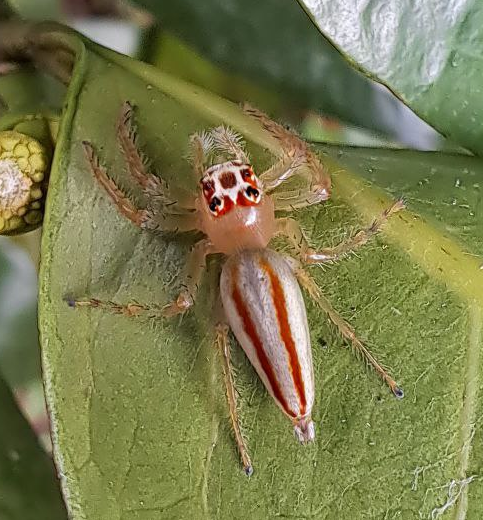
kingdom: Animalia
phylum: Arthropoda
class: Arachnida
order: Araneae
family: Salticidae
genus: Telamonia
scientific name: Telamonia dimidiata
